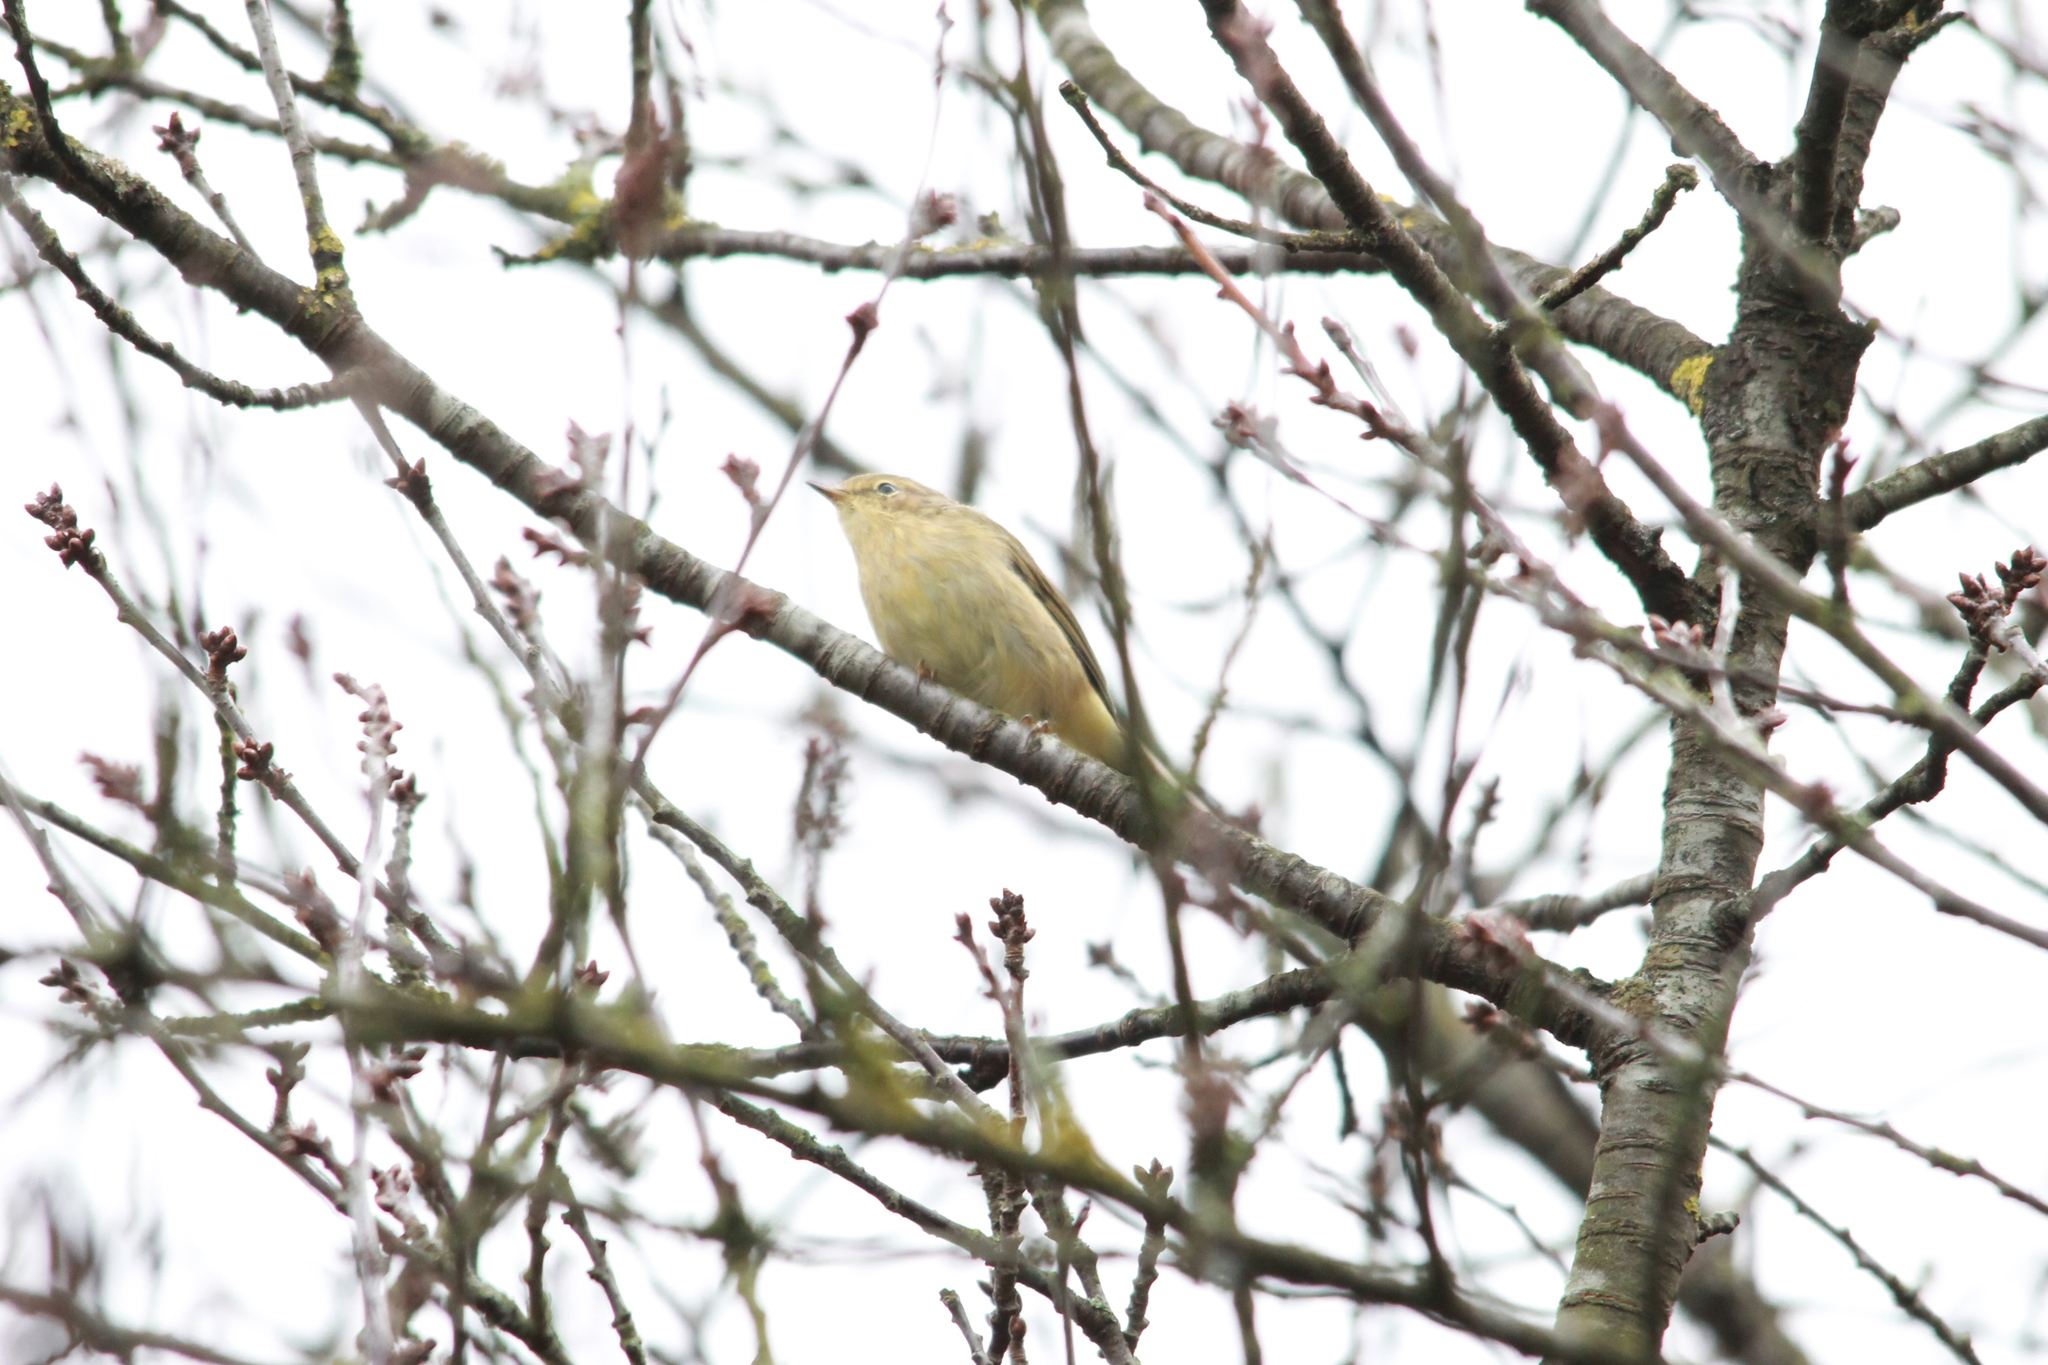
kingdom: Animalia
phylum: Chordata
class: Aves
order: Passeriformes
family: Phylloscopidae
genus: Phylloscopus
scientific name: Phylloscopus trochilus
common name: Willow warbler
